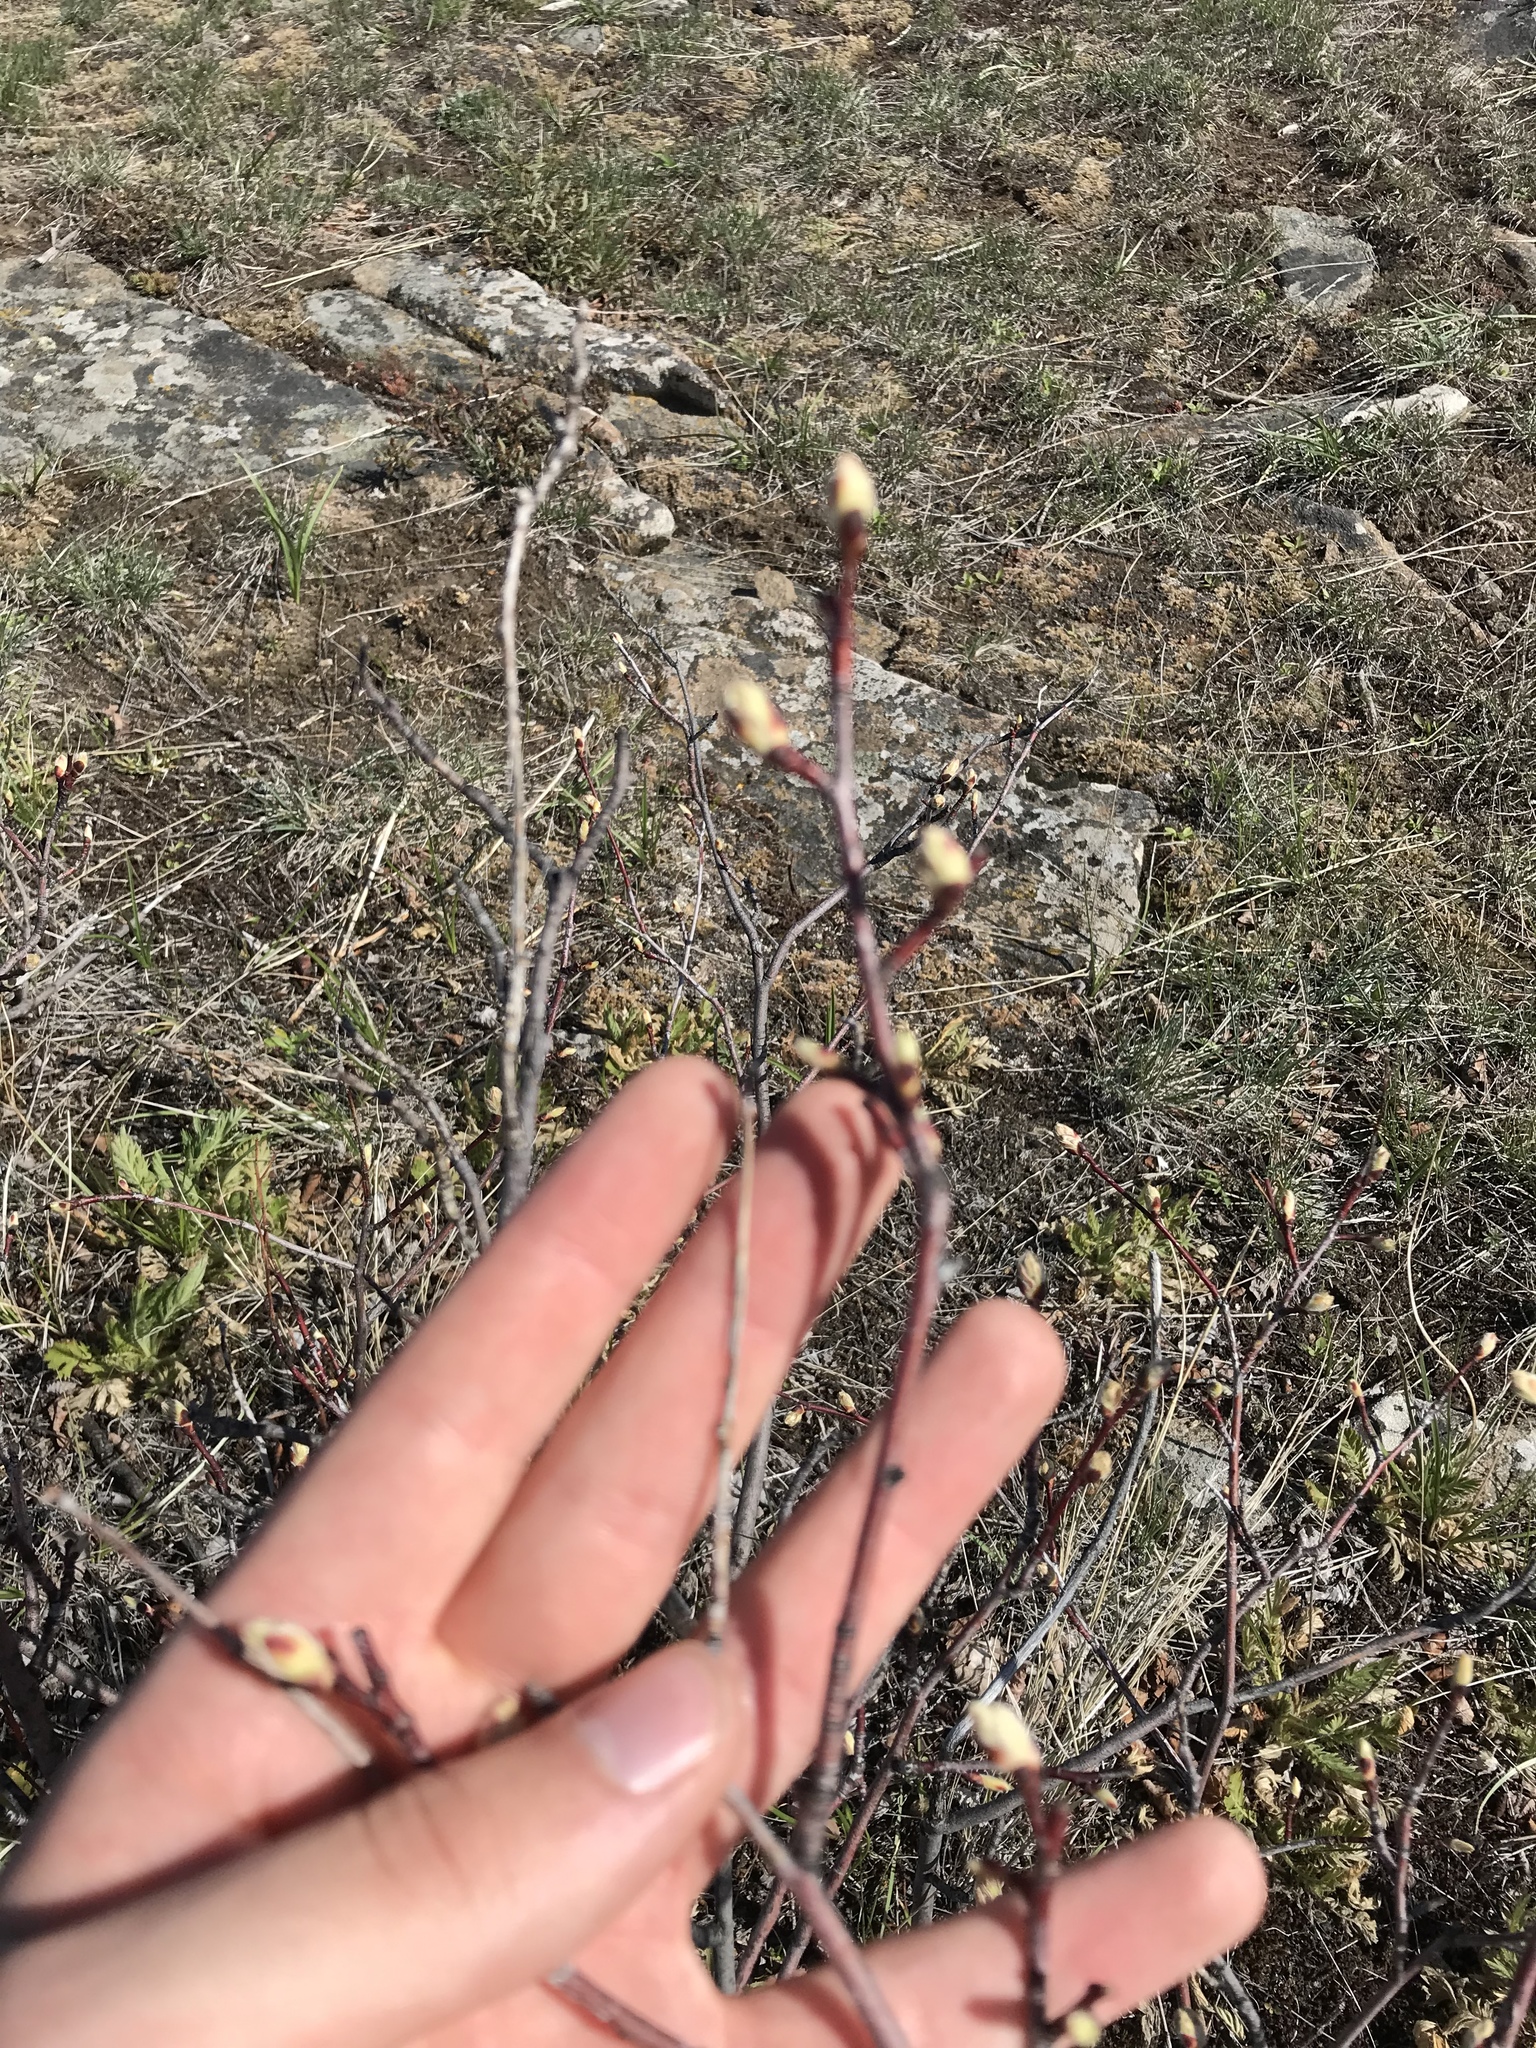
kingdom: Plantae
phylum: Tracheophyta
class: Magnoliopsida
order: Rosales
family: Rosaceae
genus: Amelanchier
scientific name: Amelanchier alnifolia
